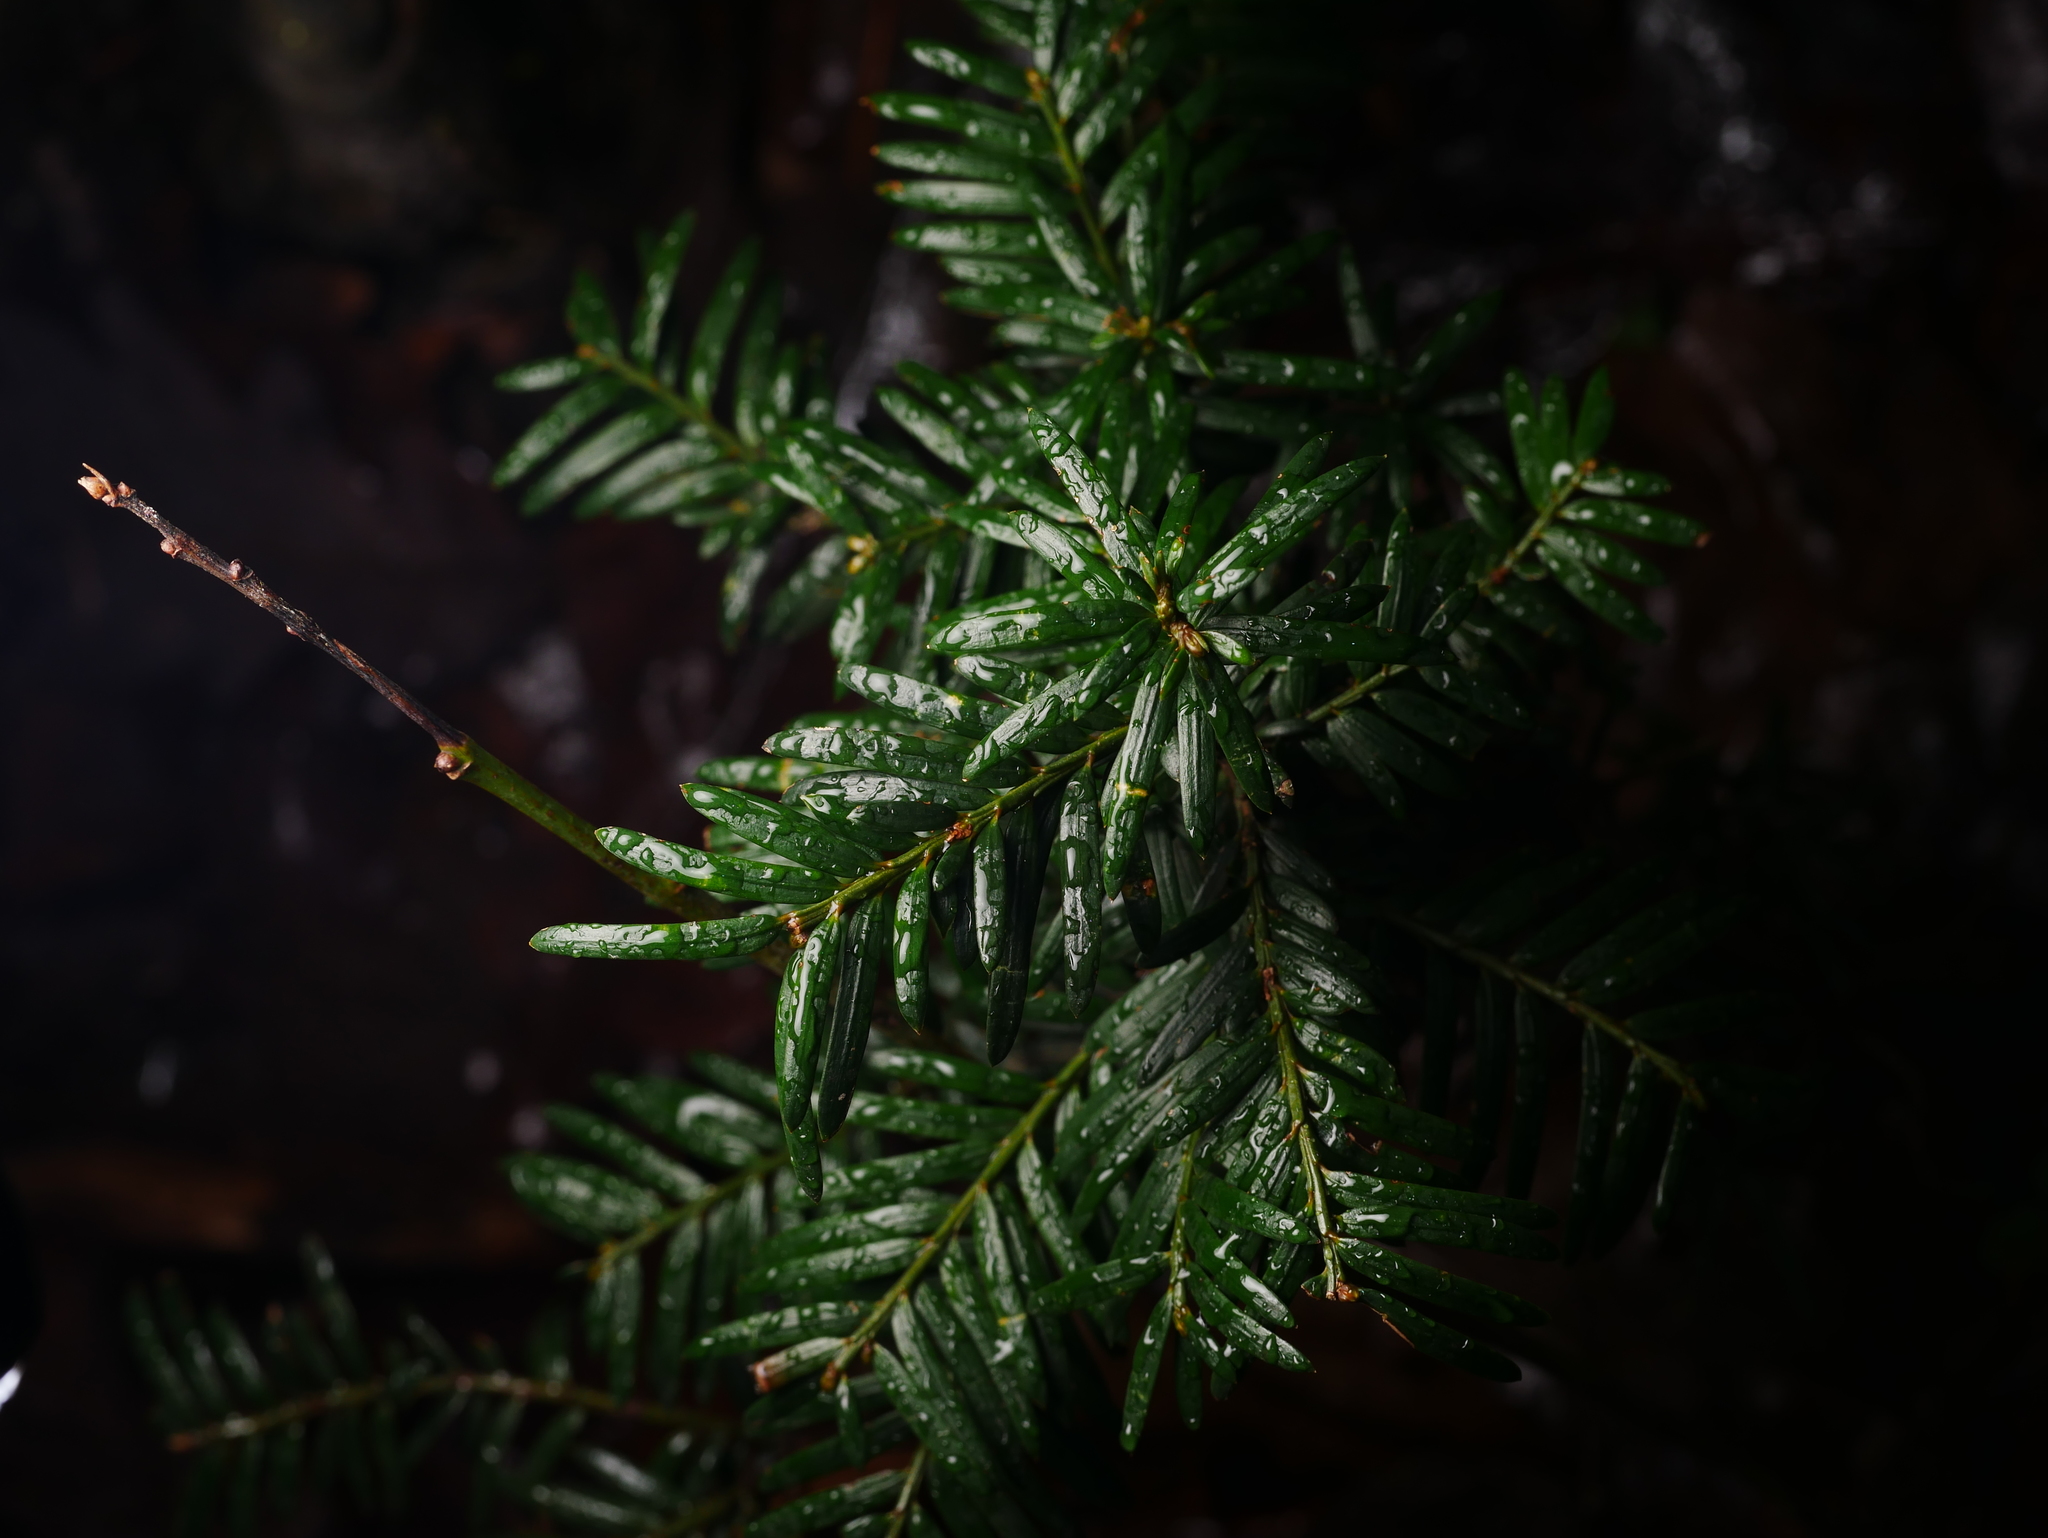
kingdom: Plantae
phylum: Tracheophyta
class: Pinopsida
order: Pinales
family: Taxaceae
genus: Taxus
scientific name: Taxus baccata
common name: Yew
